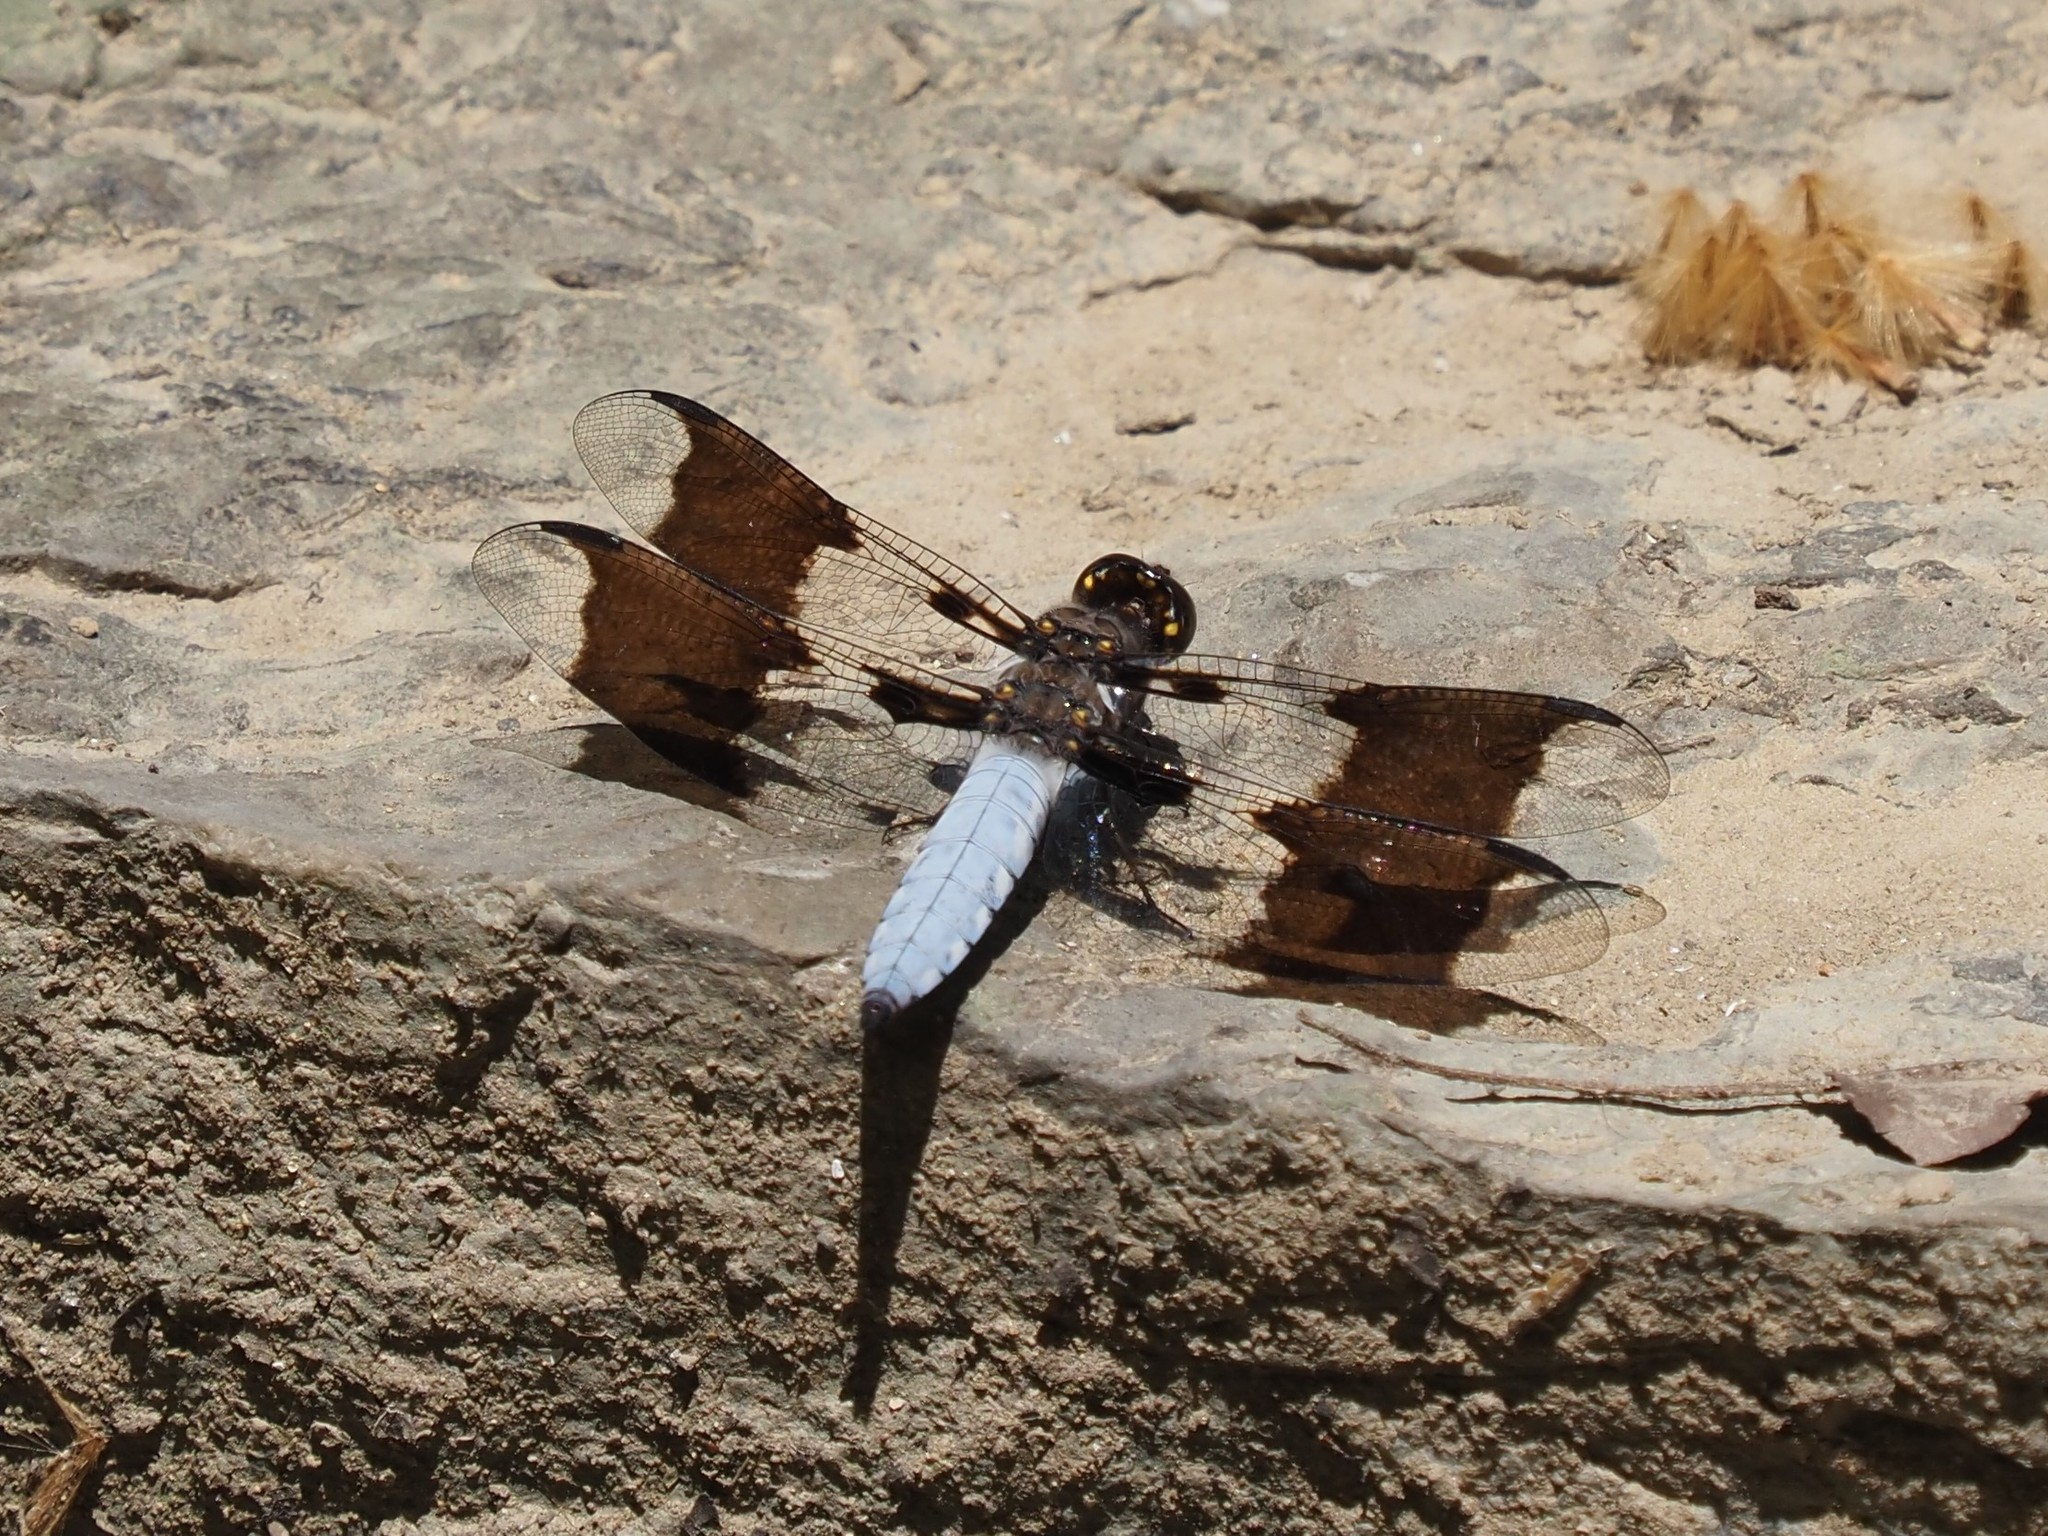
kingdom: Animalia
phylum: Arthropoda
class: Insecta
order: Odonata
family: Libellulidae
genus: Plathemis
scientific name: Plathemis lydia
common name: Common whitetail
